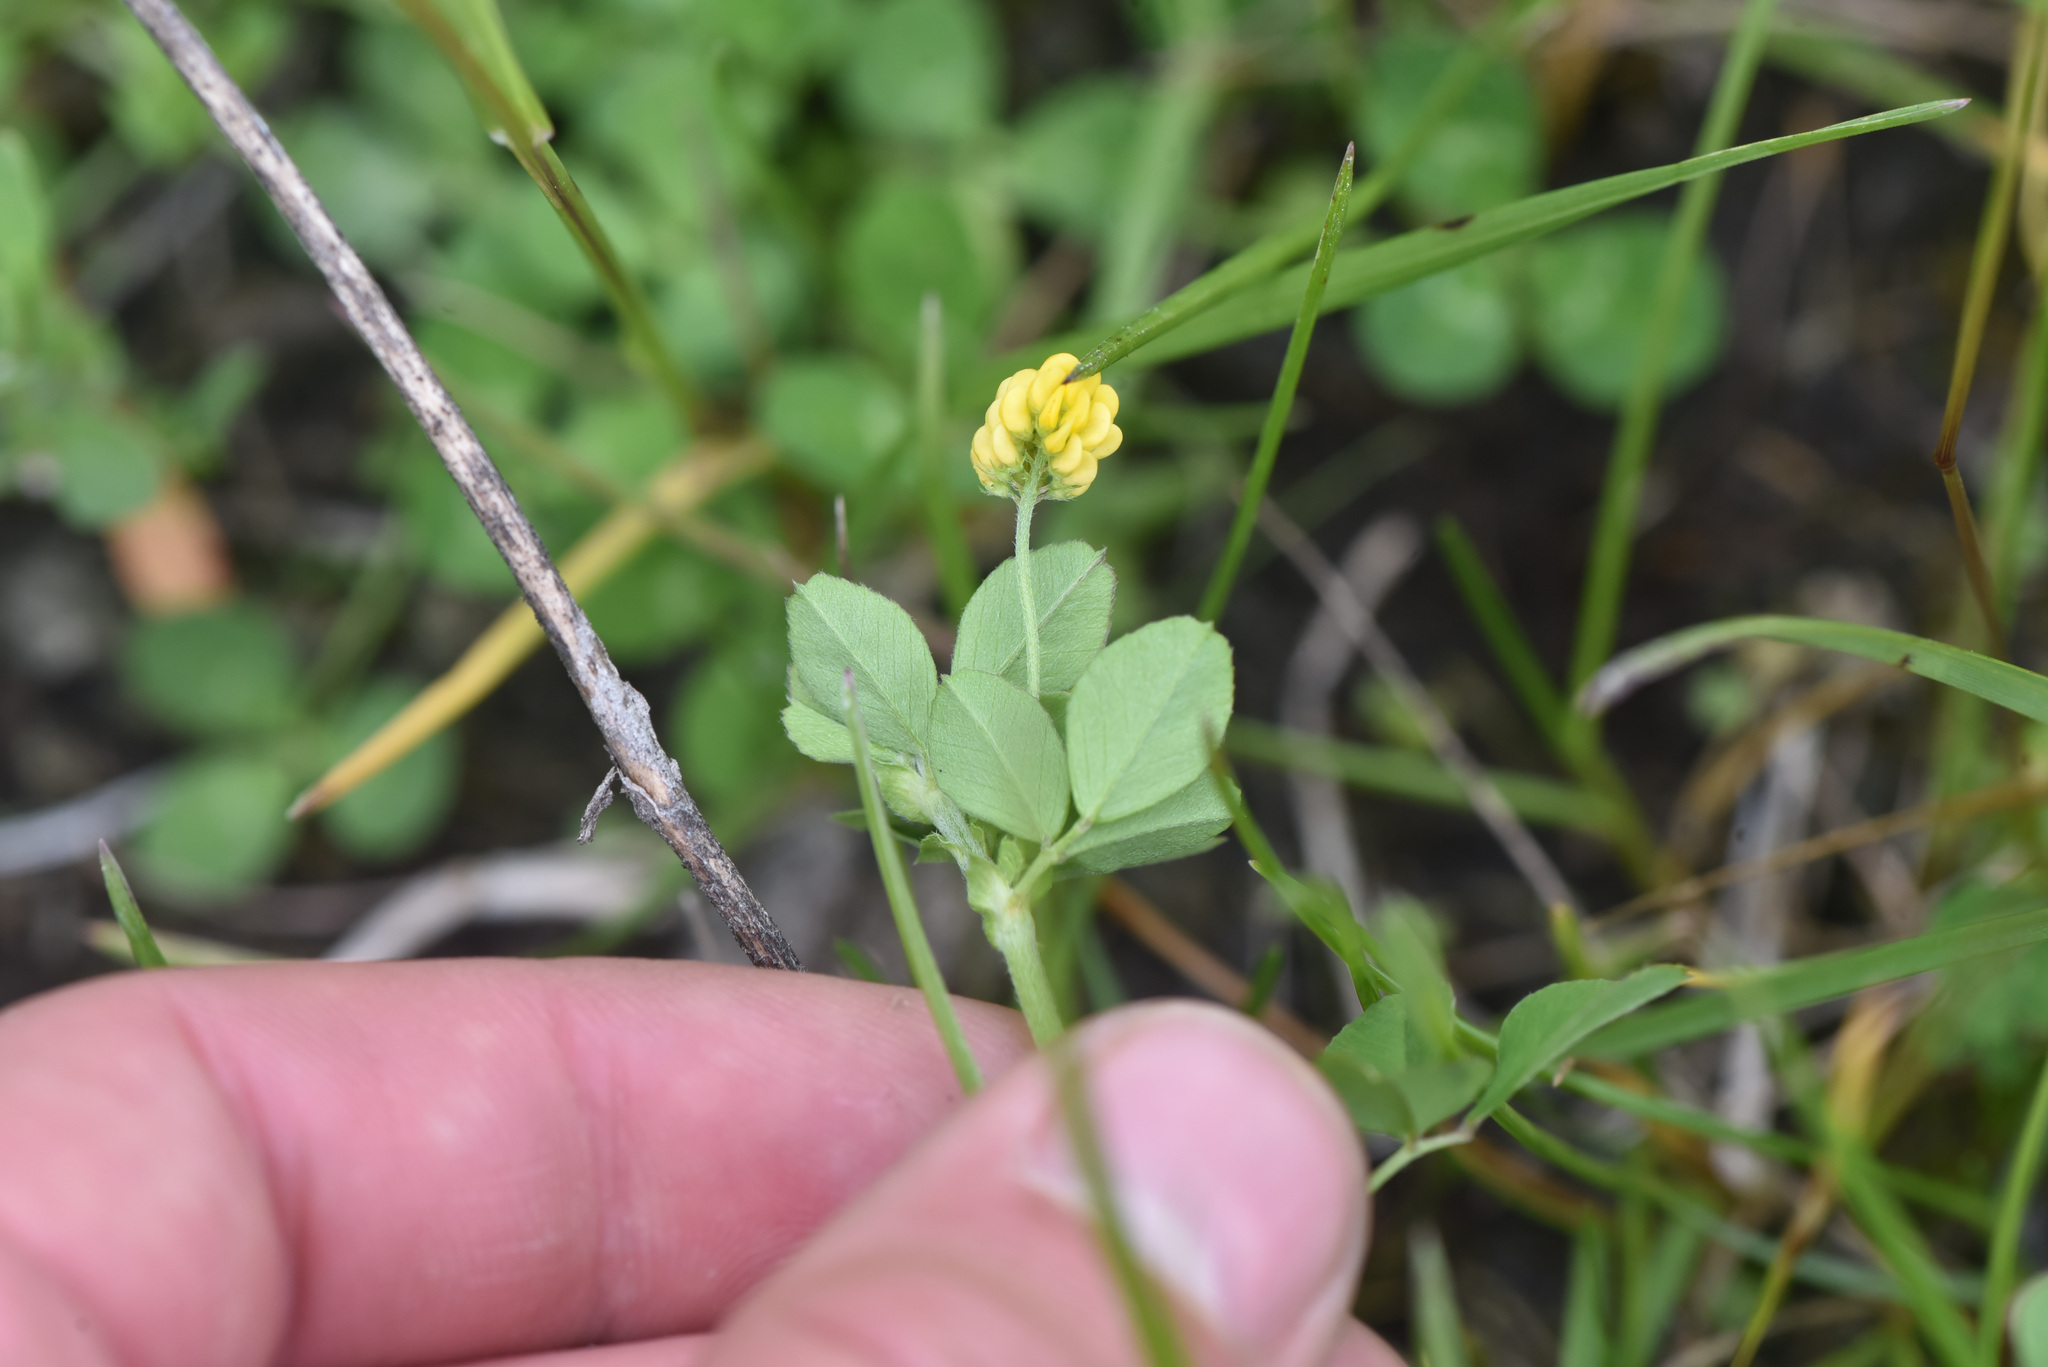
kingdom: Plantae
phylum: Tracheophyta
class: Magnoliopsida
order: Fabales
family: Fabaceae
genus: Medicago
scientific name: Medicago lupulina
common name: Black medick
